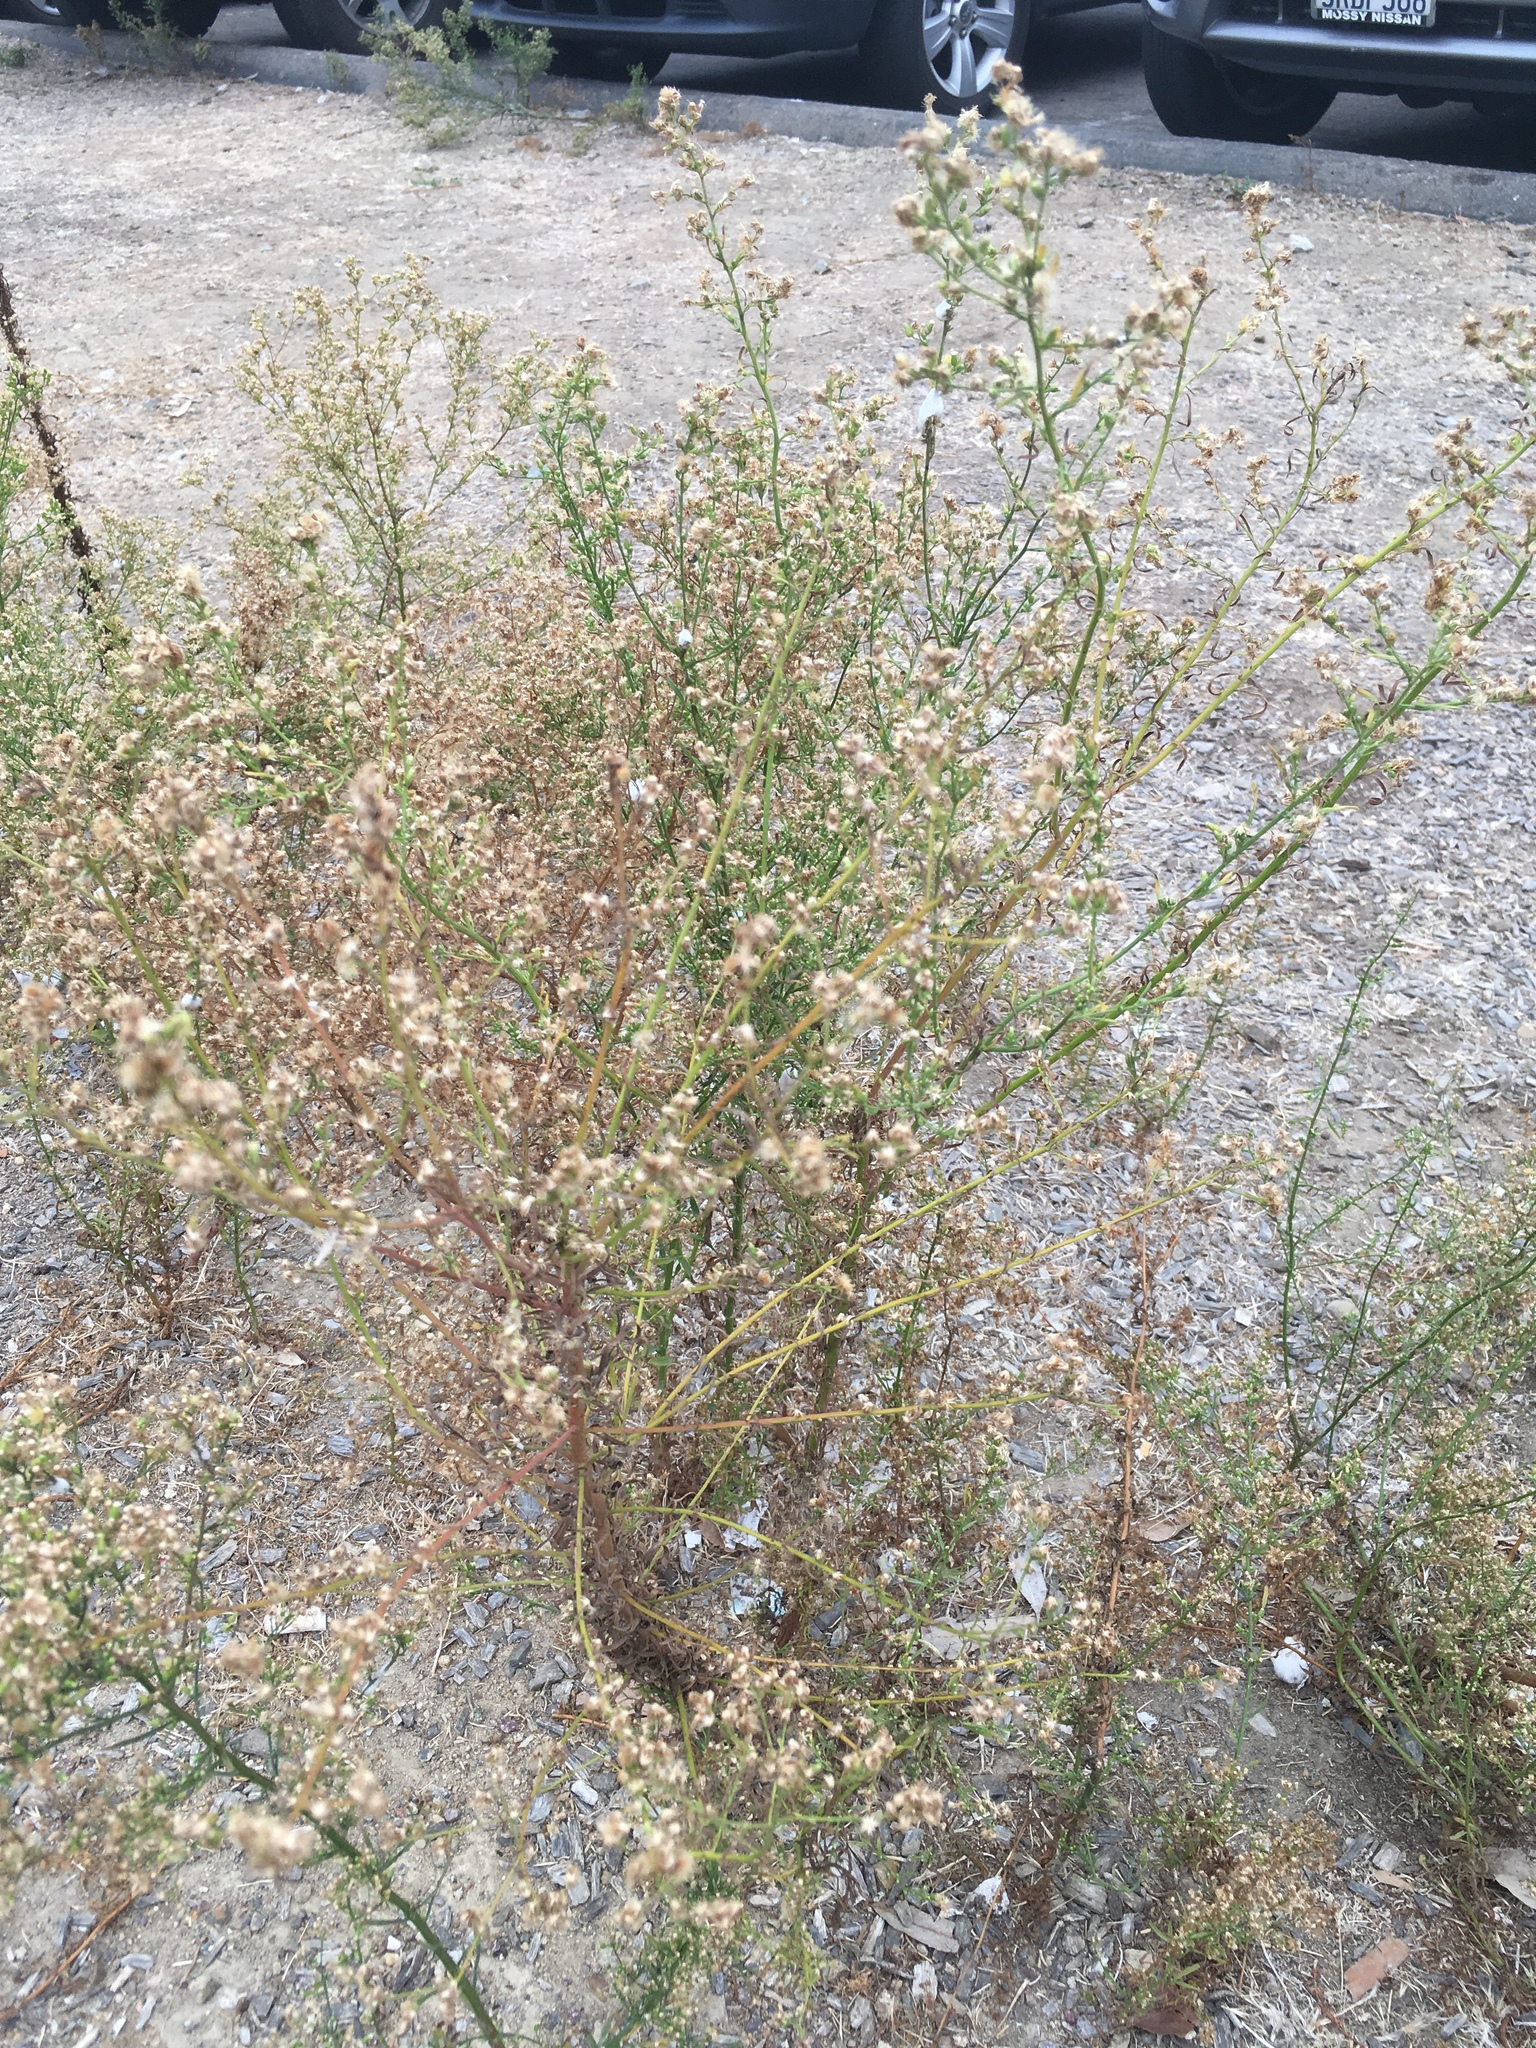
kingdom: Plantae
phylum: Tracheophyta
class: Magnoliopsida
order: Asterales
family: Asteraceae
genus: Erigeron
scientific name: Erigeron canadensis
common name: Canadian fleabane
